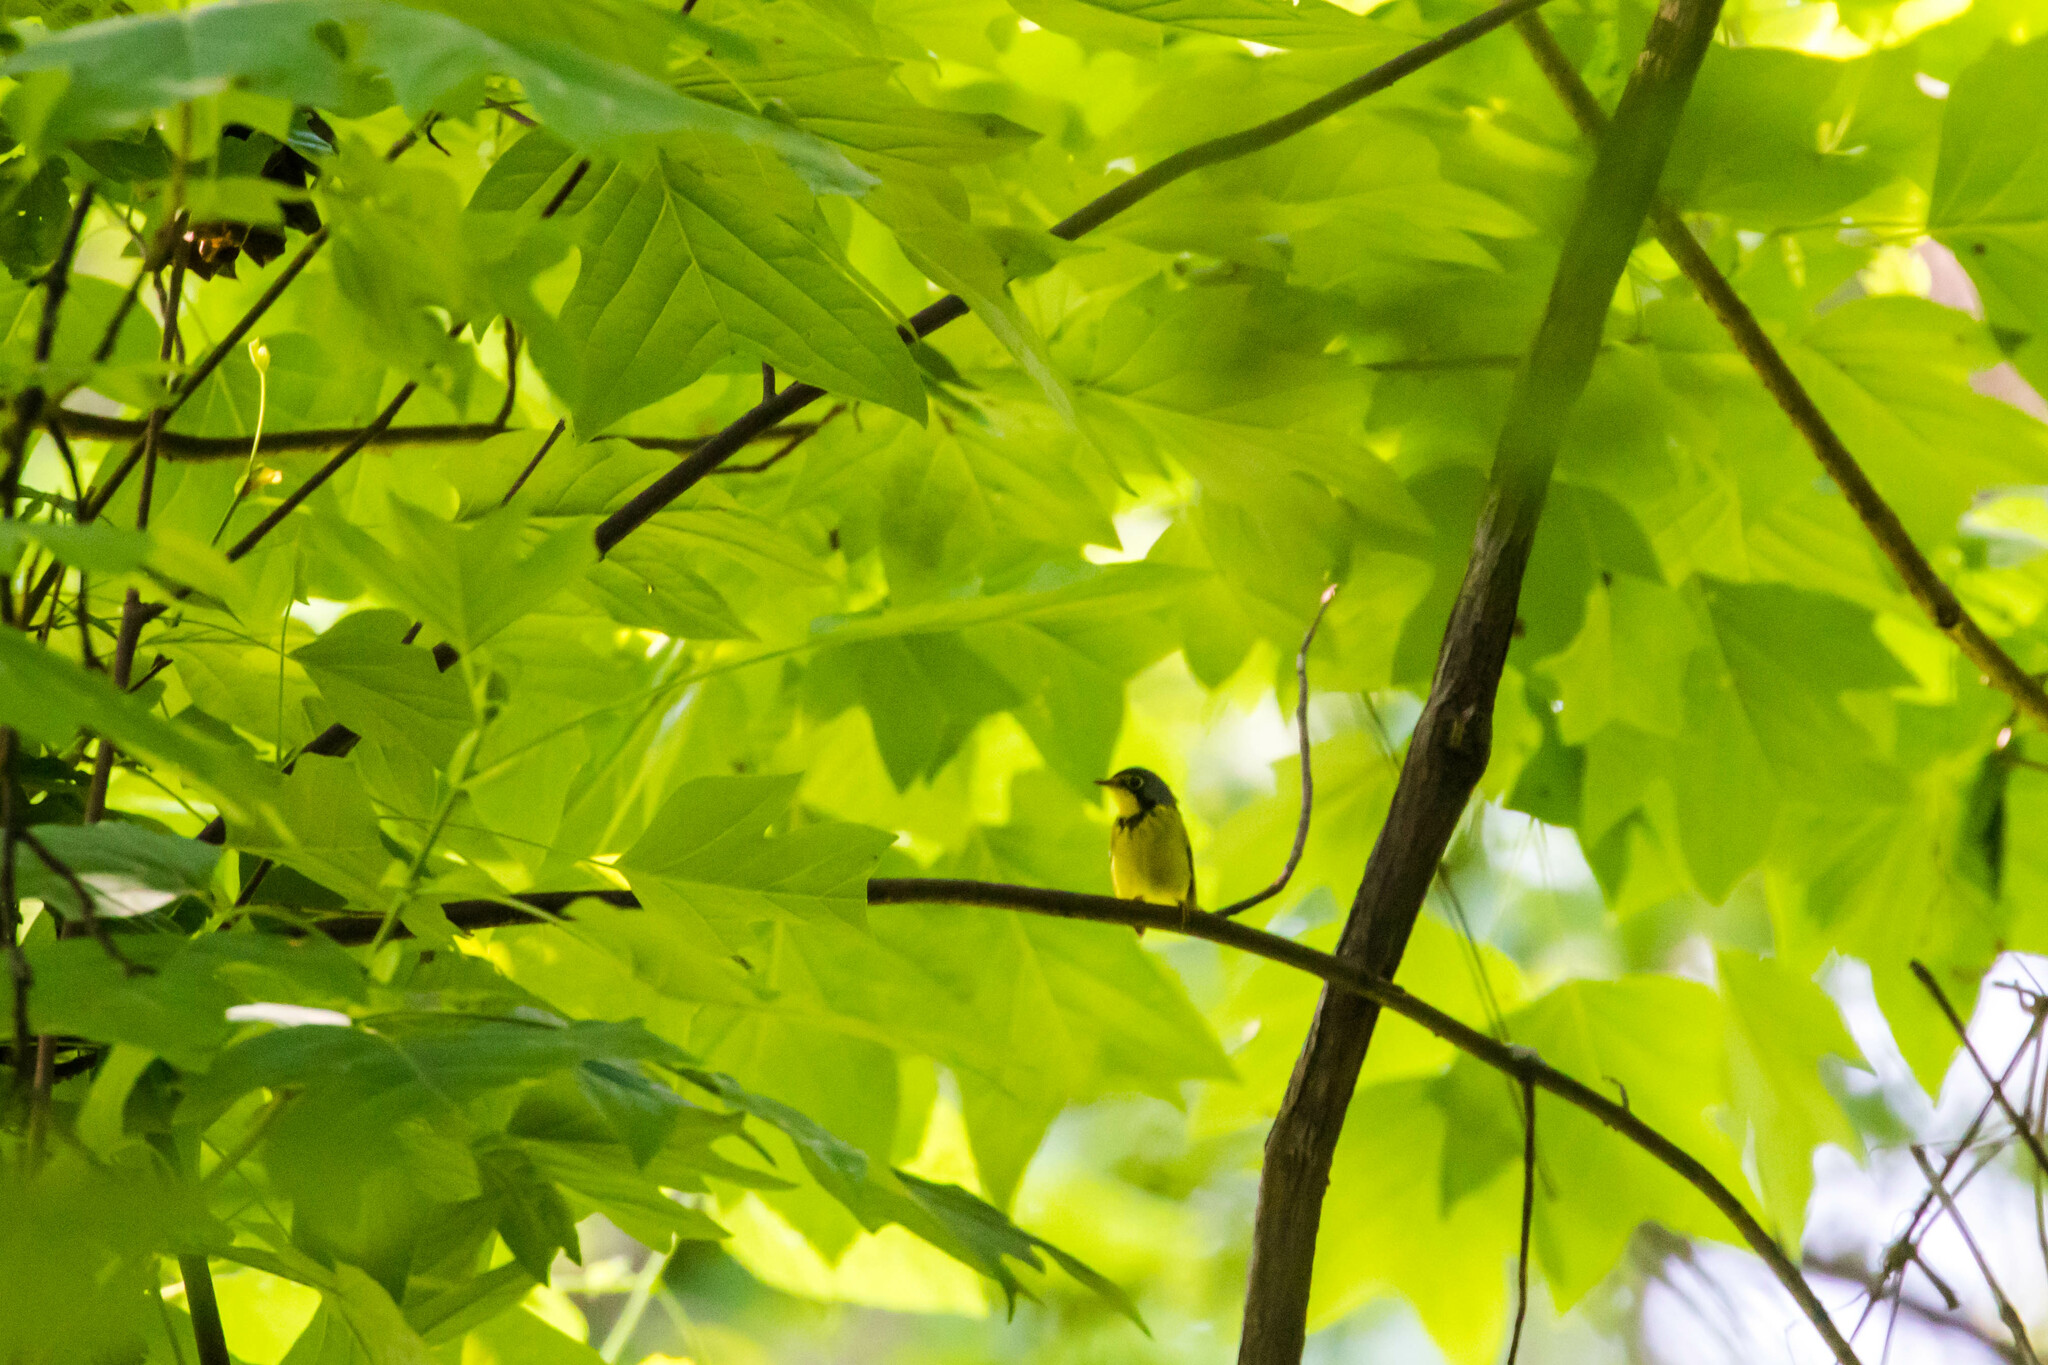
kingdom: Animalia
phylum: Chordata
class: Aves
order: Passeriformes
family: Parulidae
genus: Cardellina
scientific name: Cardellina canadensis
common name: Canada warbler
